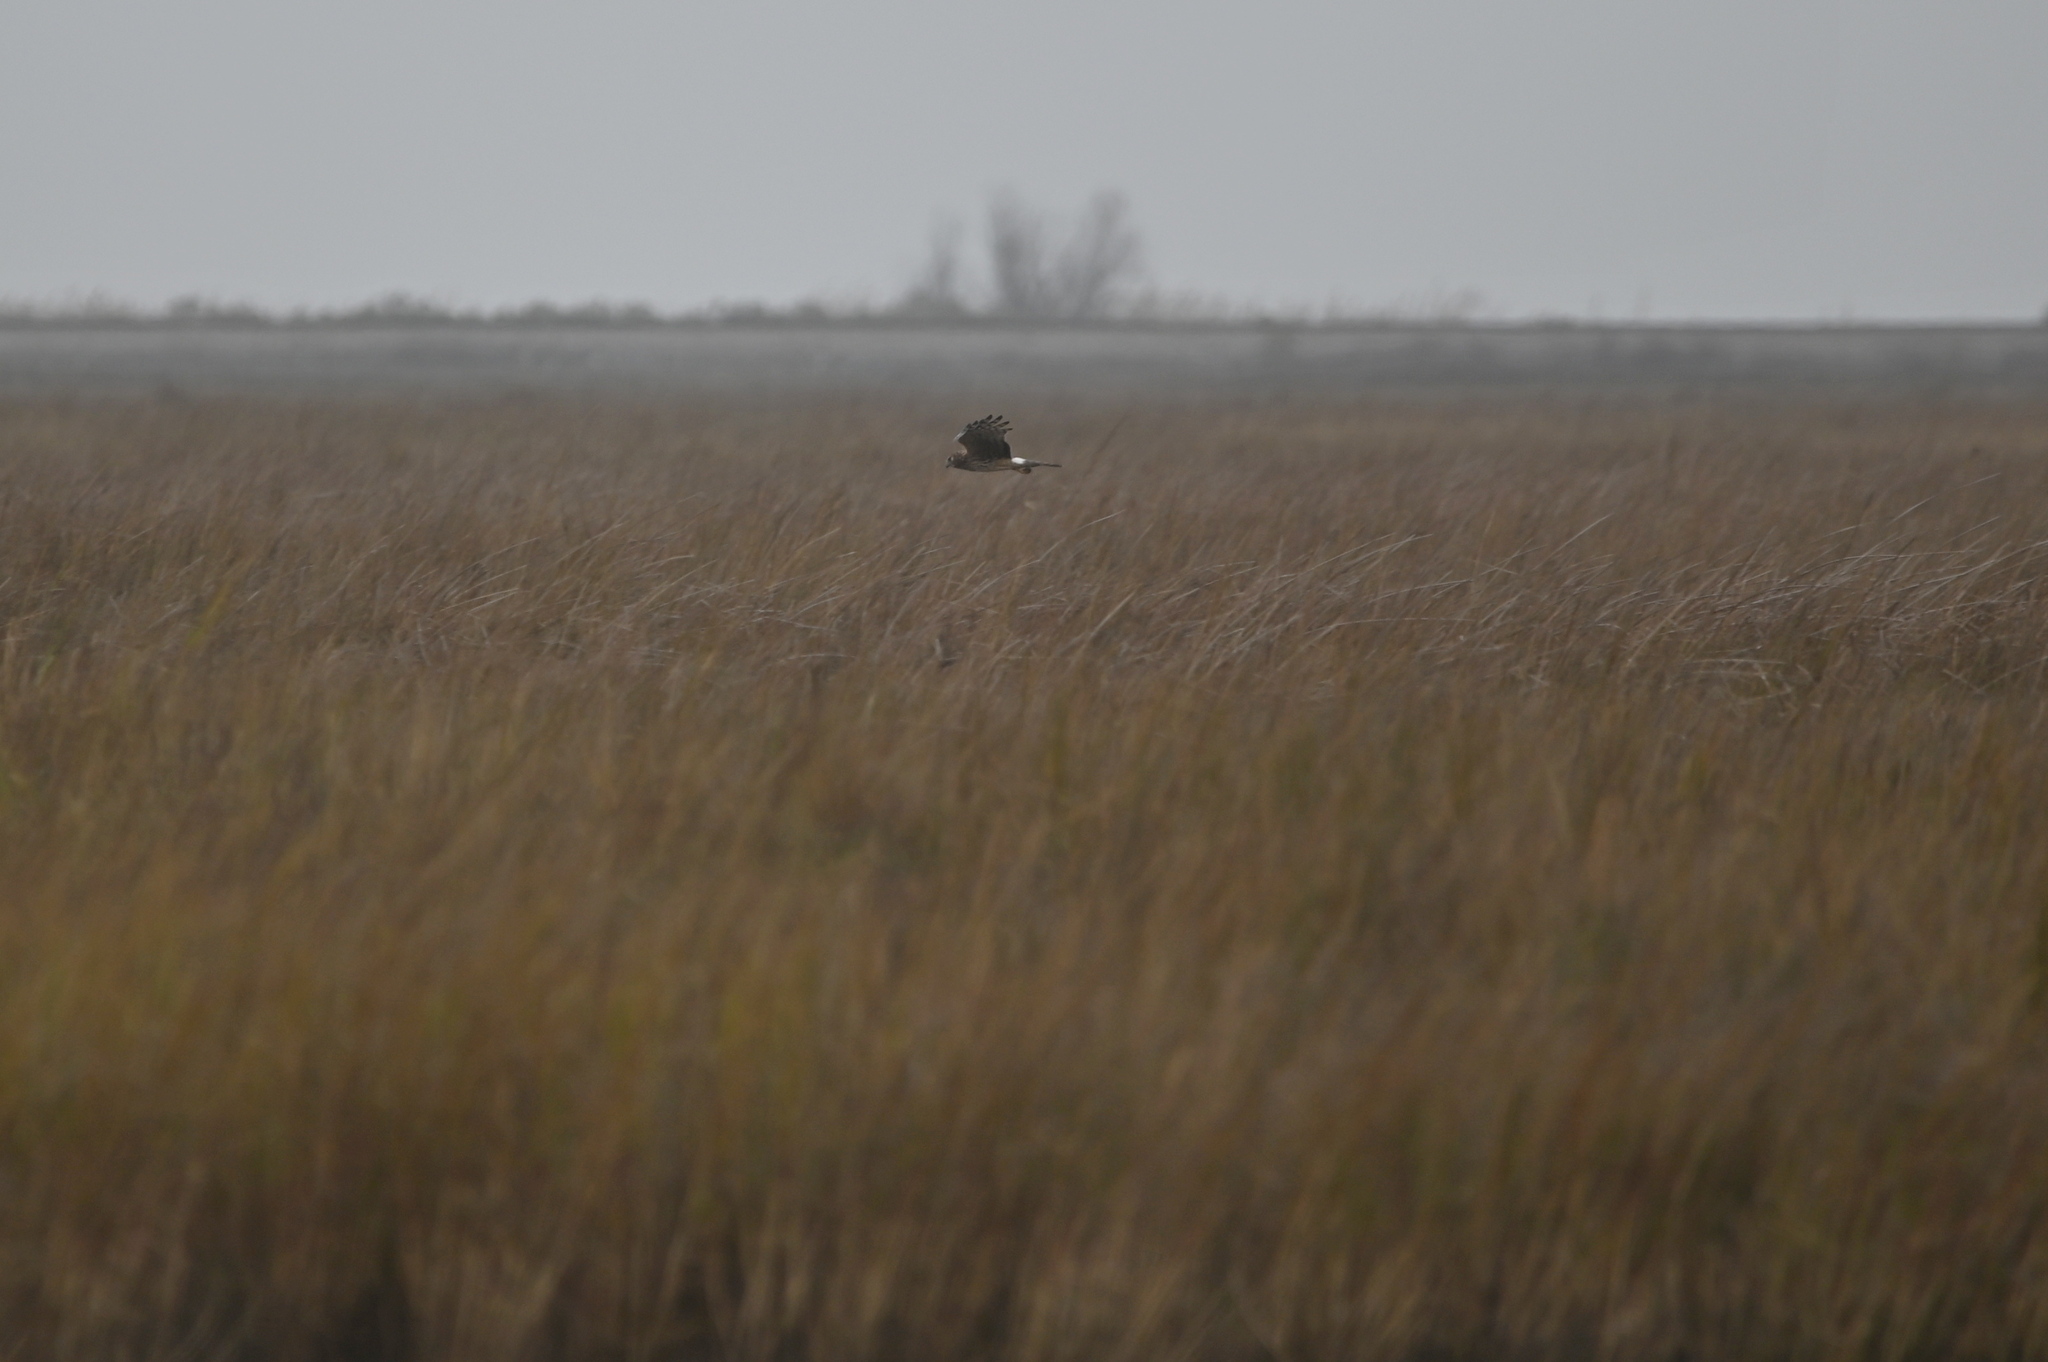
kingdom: Animalia
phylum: Chordata
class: Aves
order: Accipitriformes
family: Accipitridae
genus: Circus
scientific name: Circus cyaneus
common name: Hen harrier
